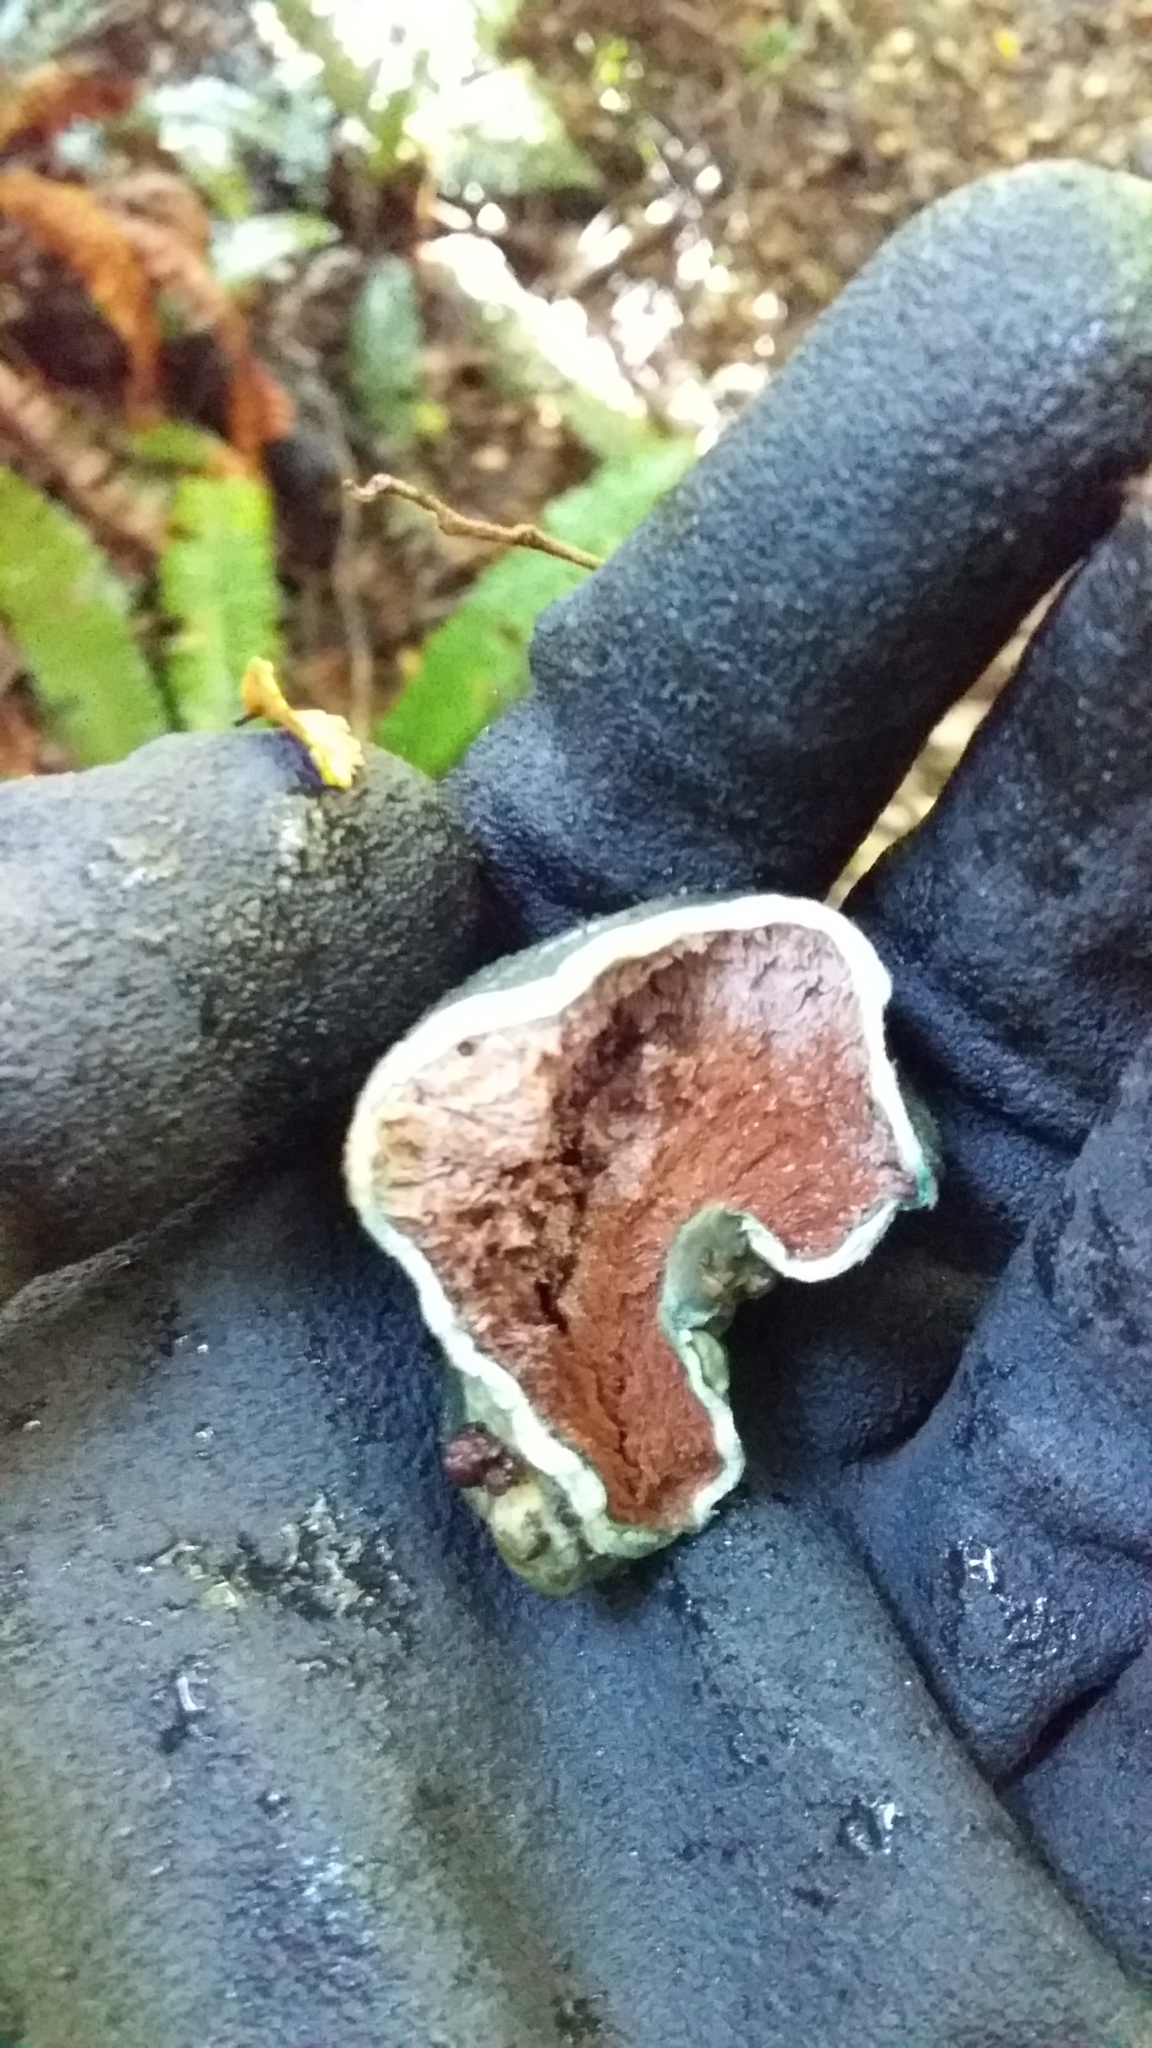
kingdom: Fungi
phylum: Basidiomycota
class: Agaricomycetes
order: Boletales
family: Boletaceae
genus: Leccinum
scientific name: Leccinum pachyderme
